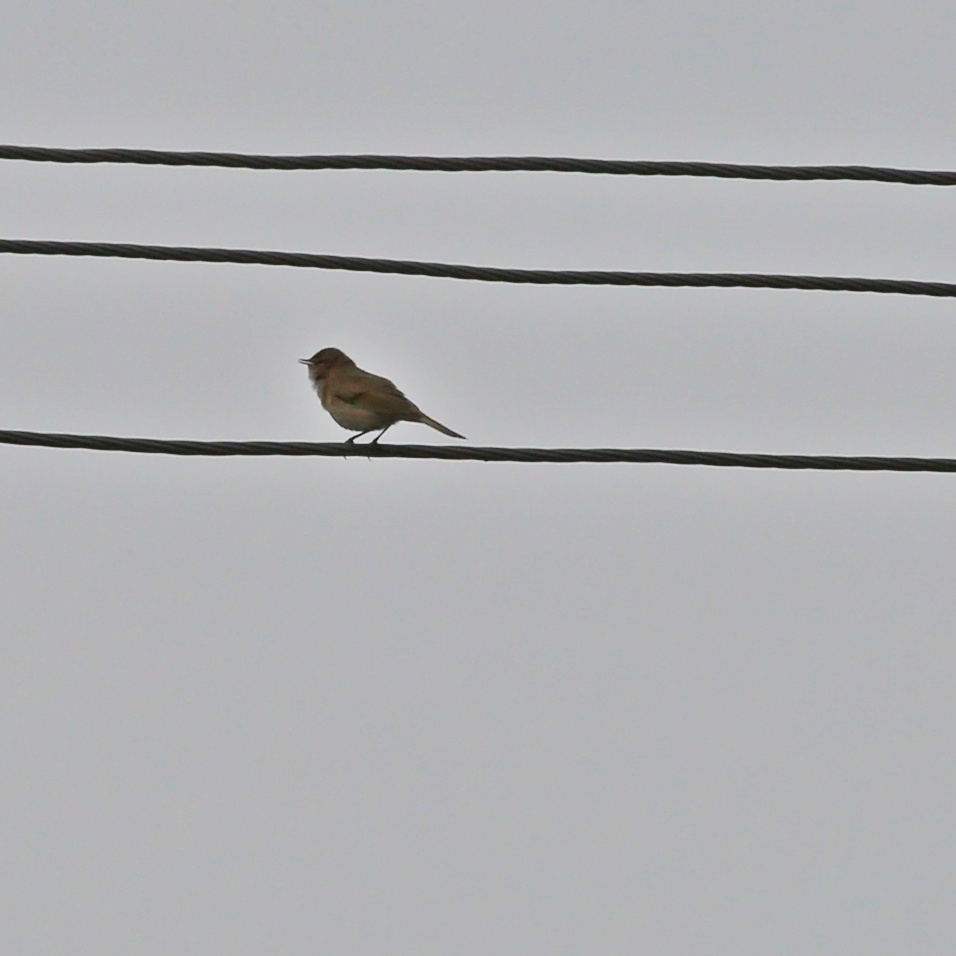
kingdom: Animalia
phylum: Chordata
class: Aves
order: Passeriformes
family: Phylloscopidae
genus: Phylloscopus
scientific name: Phylloscopus collybita
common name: Common chiffchaff
